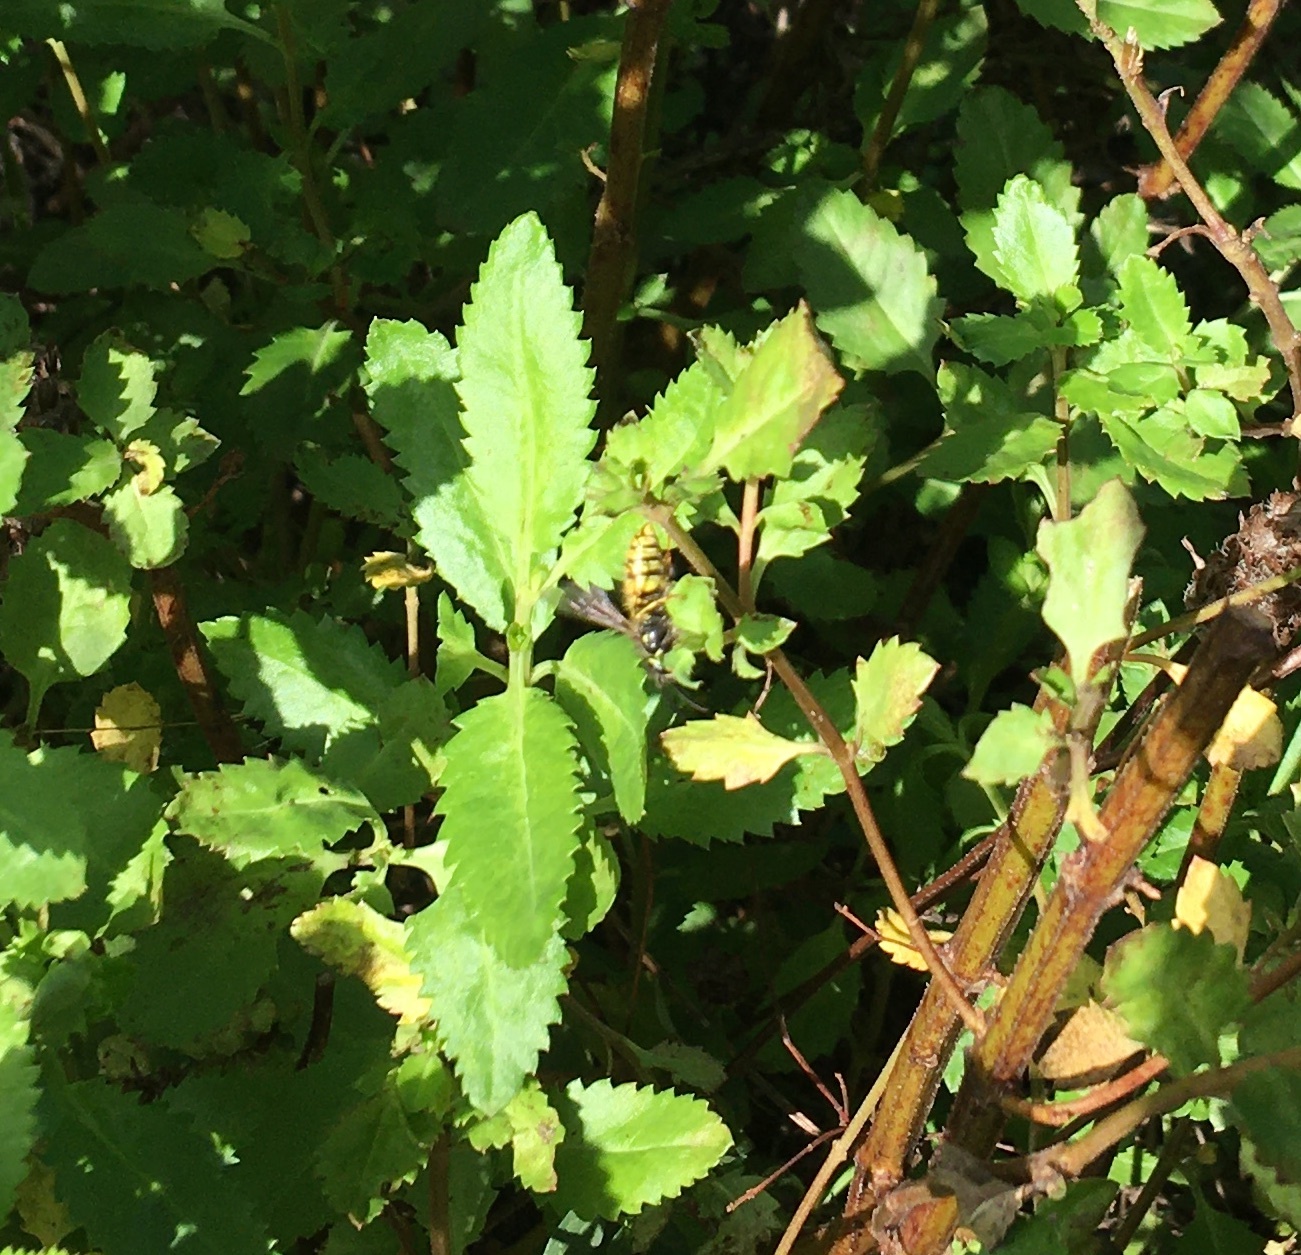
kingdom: Animalia
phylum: Arthropoda
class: Insecta
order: Hymenoptera
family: Vespidae
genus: Vespula
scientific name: Vespula vulgaris
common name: Common wasp
